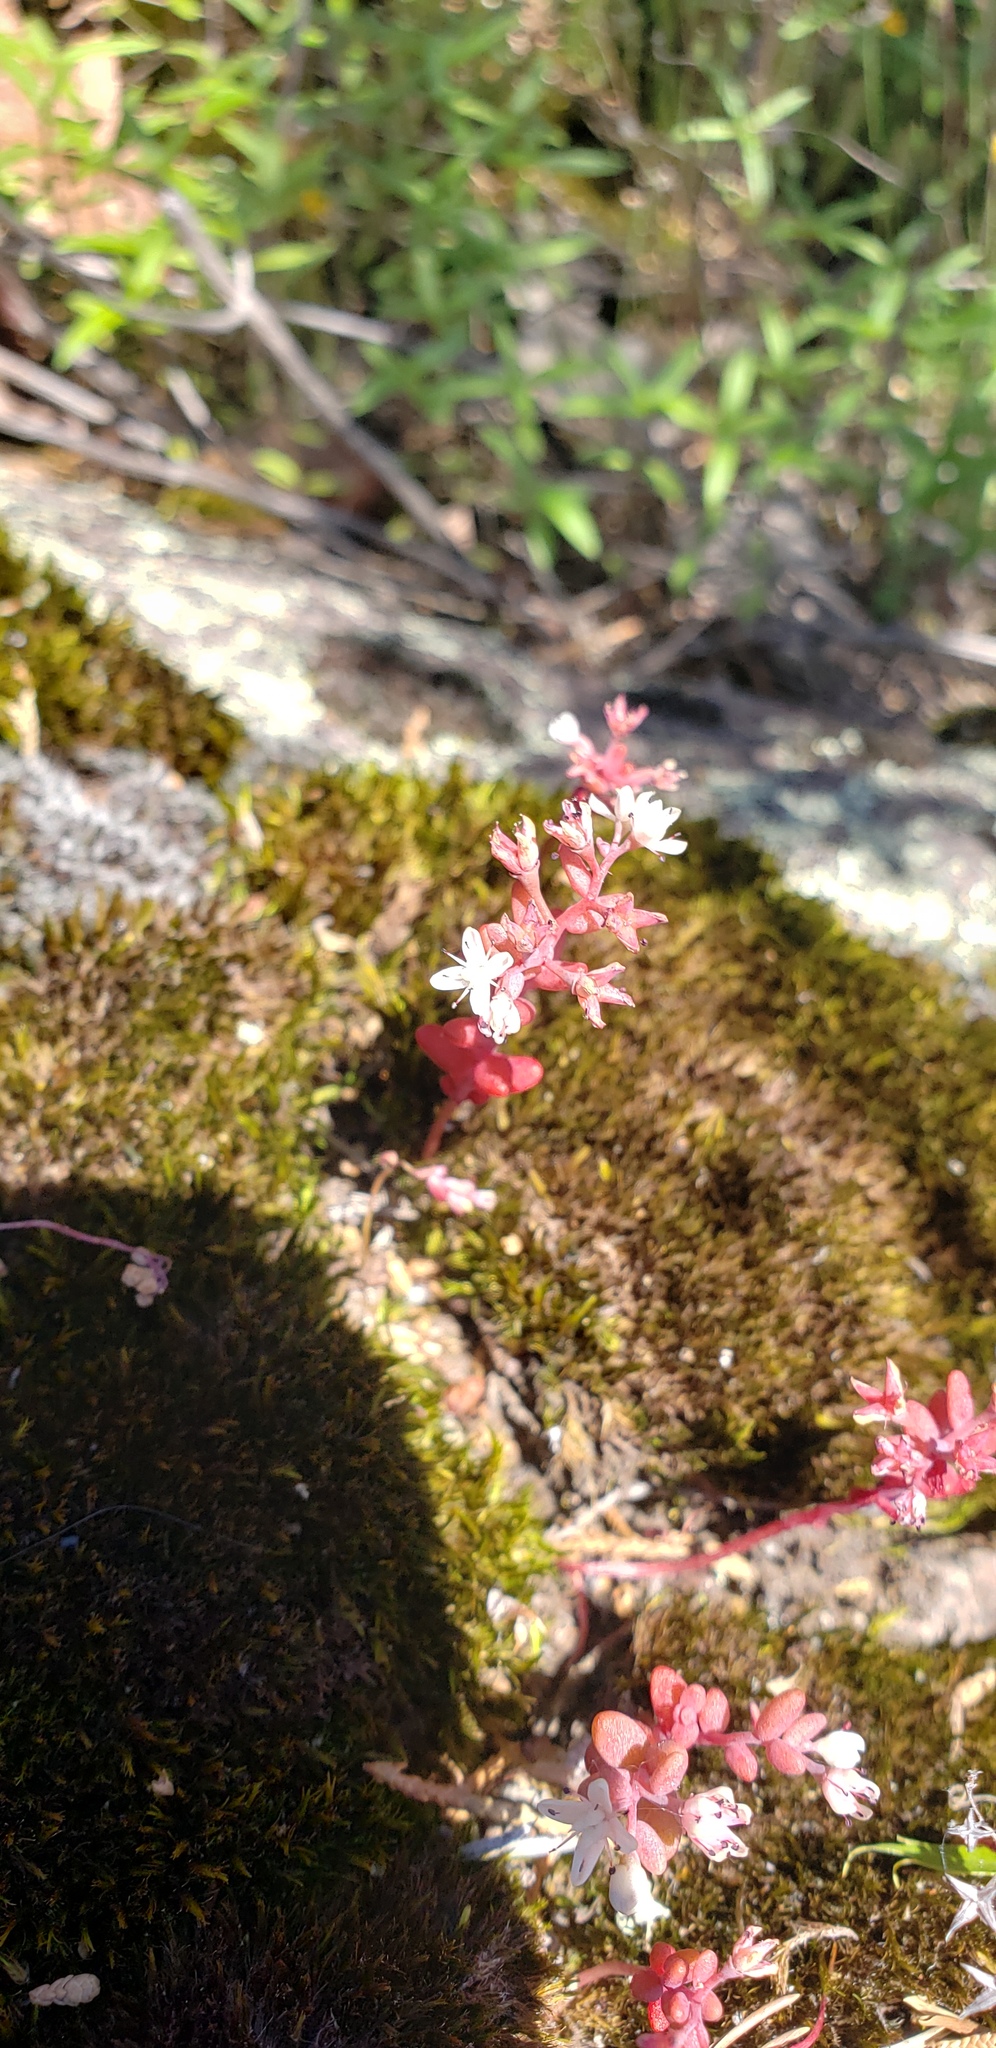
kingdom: Plantae
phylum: Tracheophyta
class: Magnoliopsida
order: Saxifragales
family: Crassulaceae
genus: Sedum
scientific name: Sedum smallii
